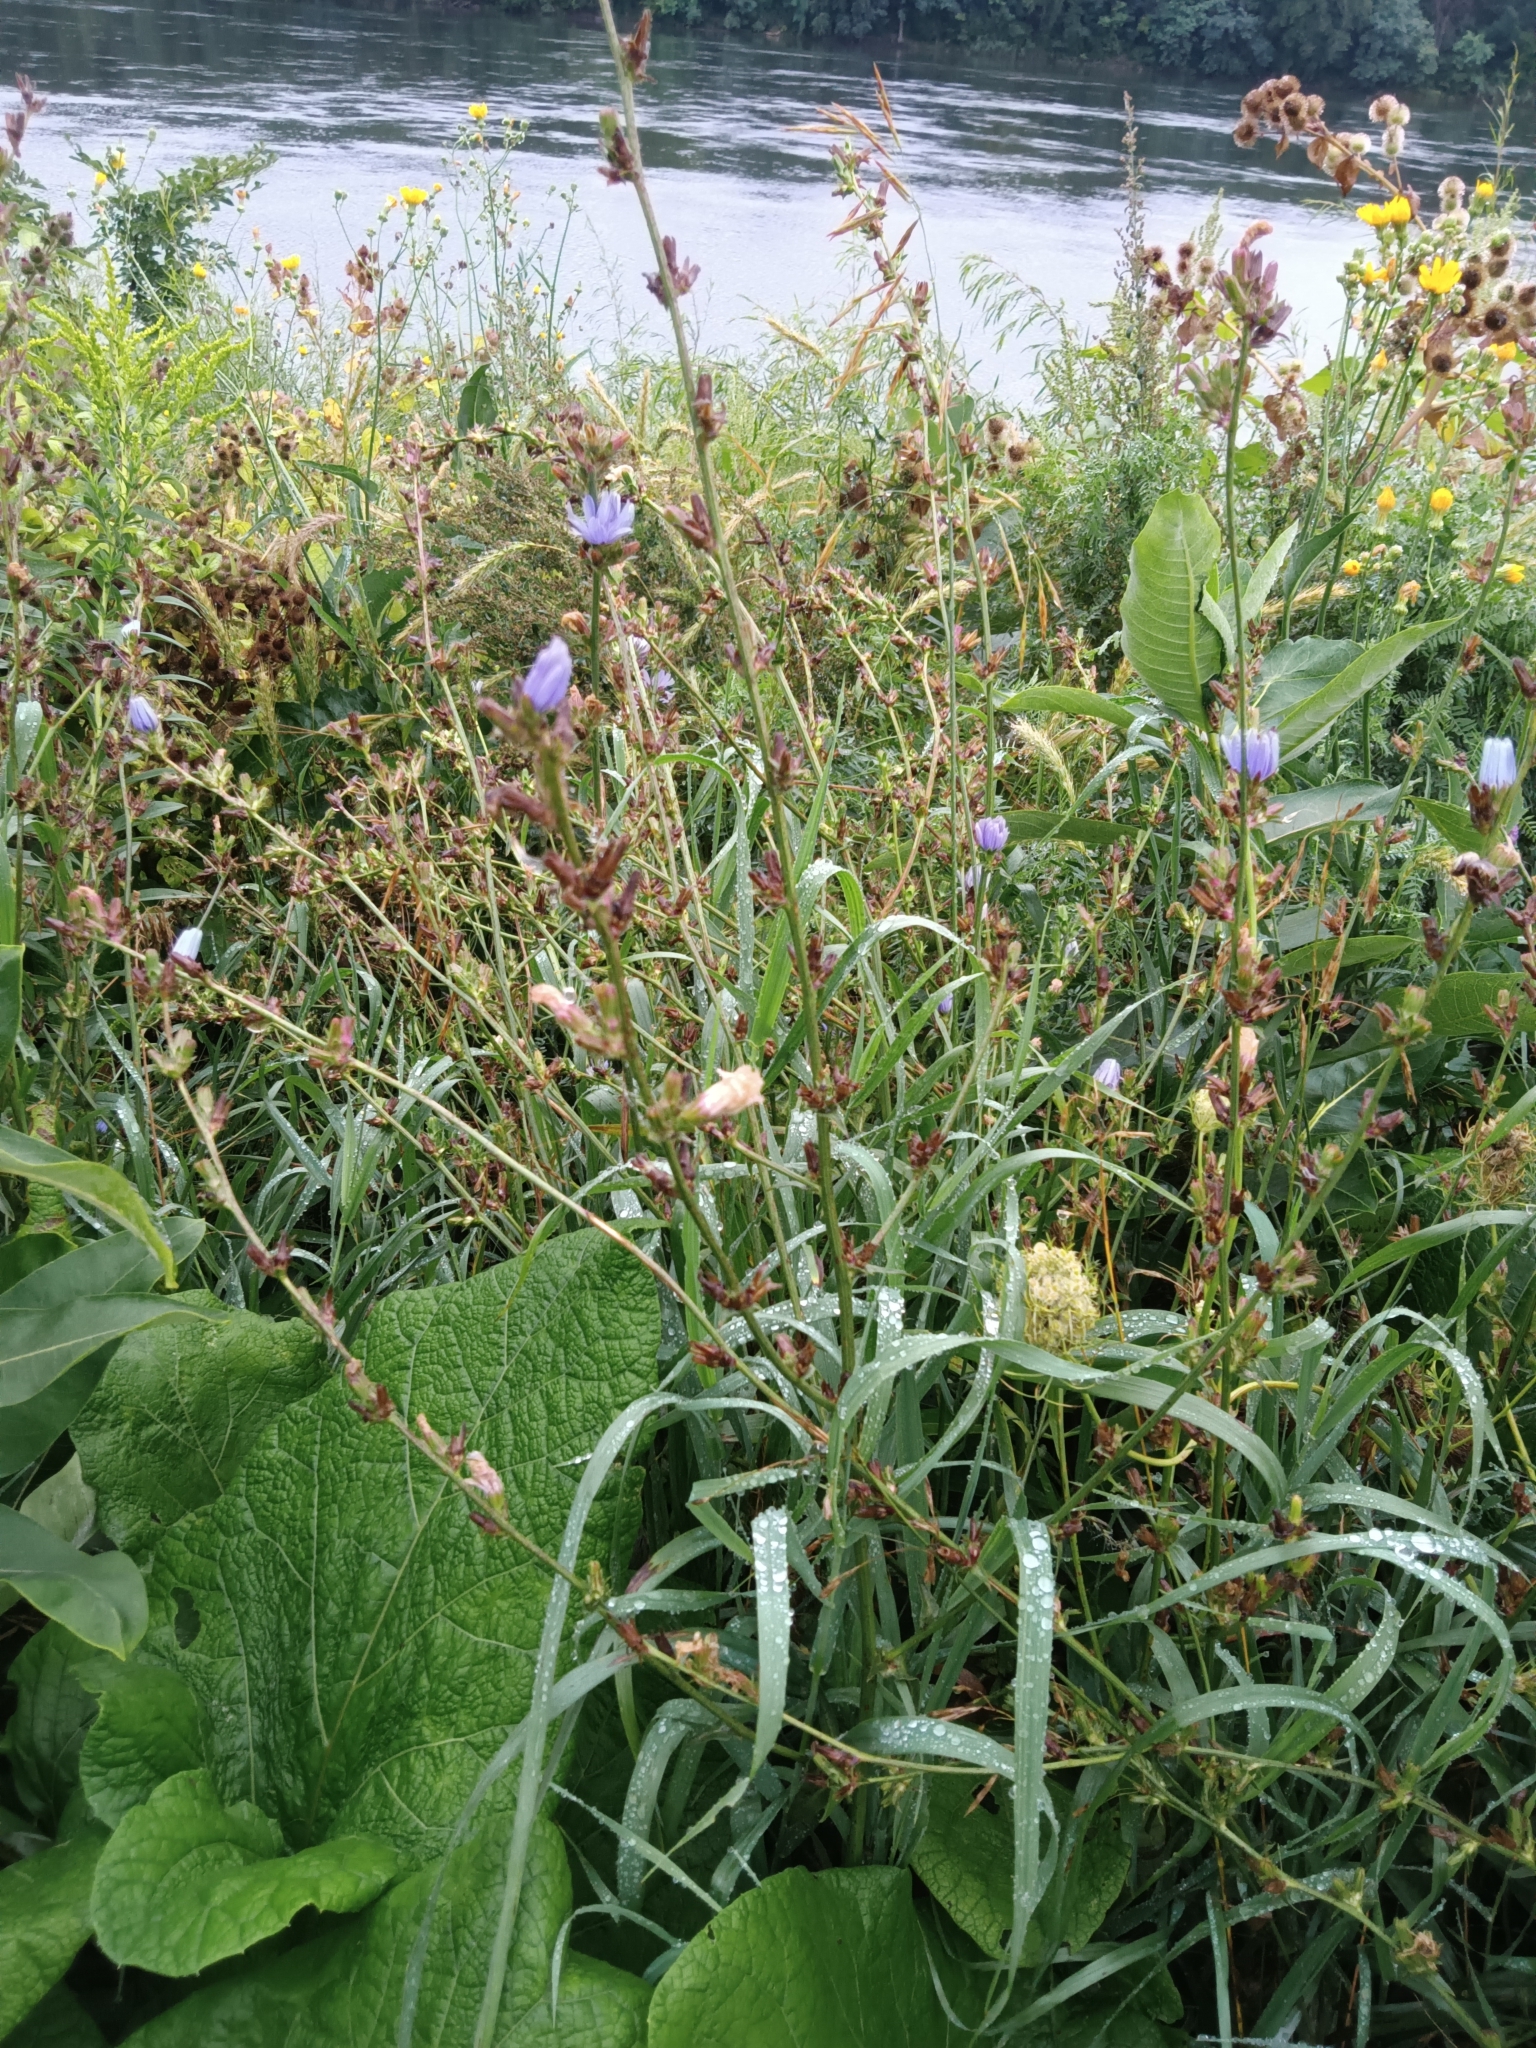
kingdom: Plantae
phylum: Tracheophyta
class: Magnoliopsida
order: Asterales
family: Asteraceae
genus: Cichorium
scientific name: Cichorium intybus
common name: Chicory
